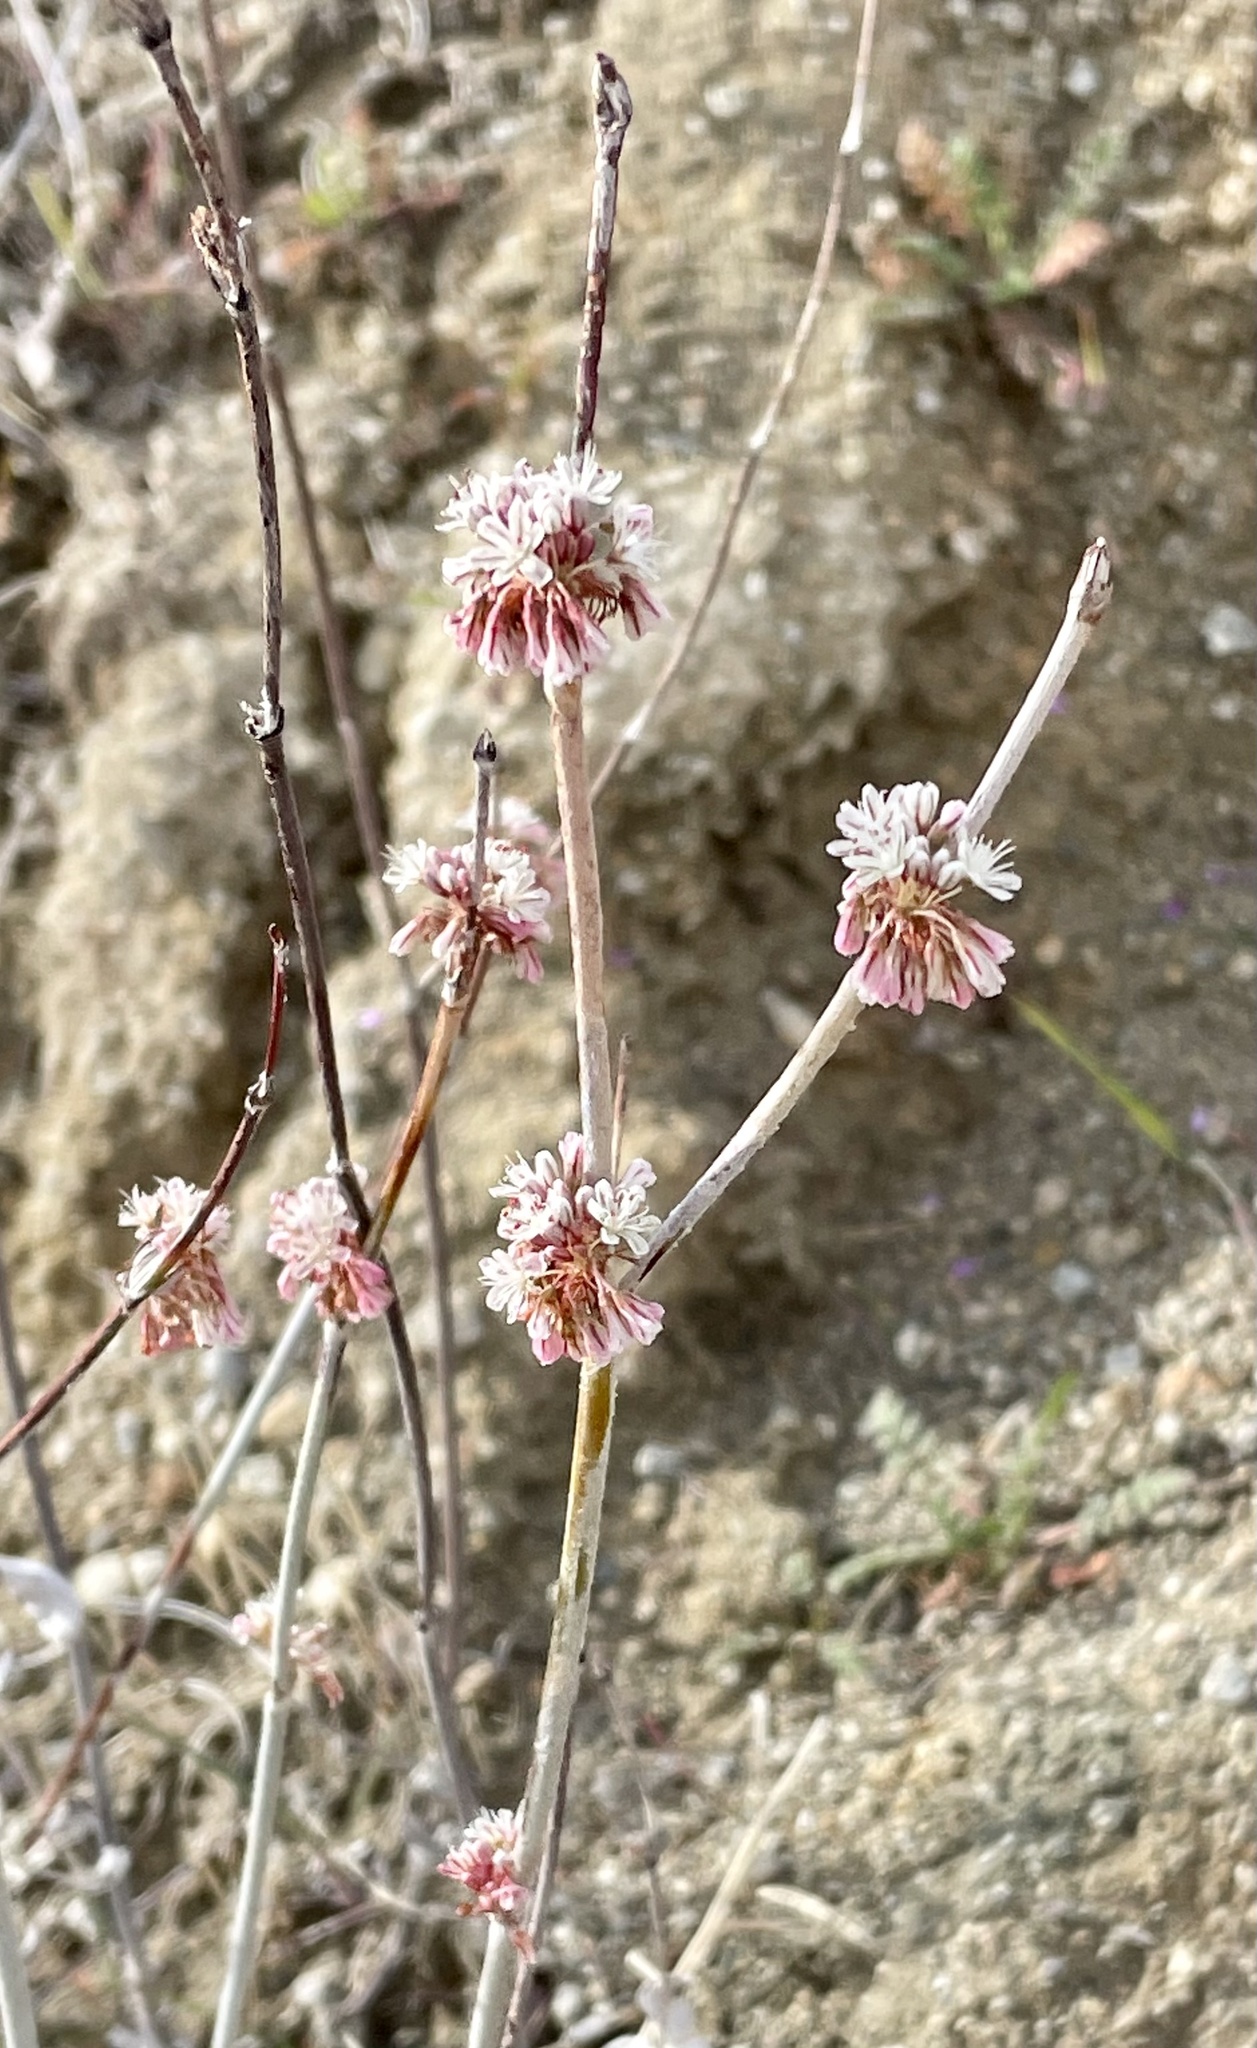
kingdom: Plantae
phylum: Tracheophyta
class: Magnoliopsida
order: Caryophyllales
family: Polygonaceae
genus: Eriogonum
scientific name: Eriogonum elongatum
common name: Long-stem wild buckwheat
